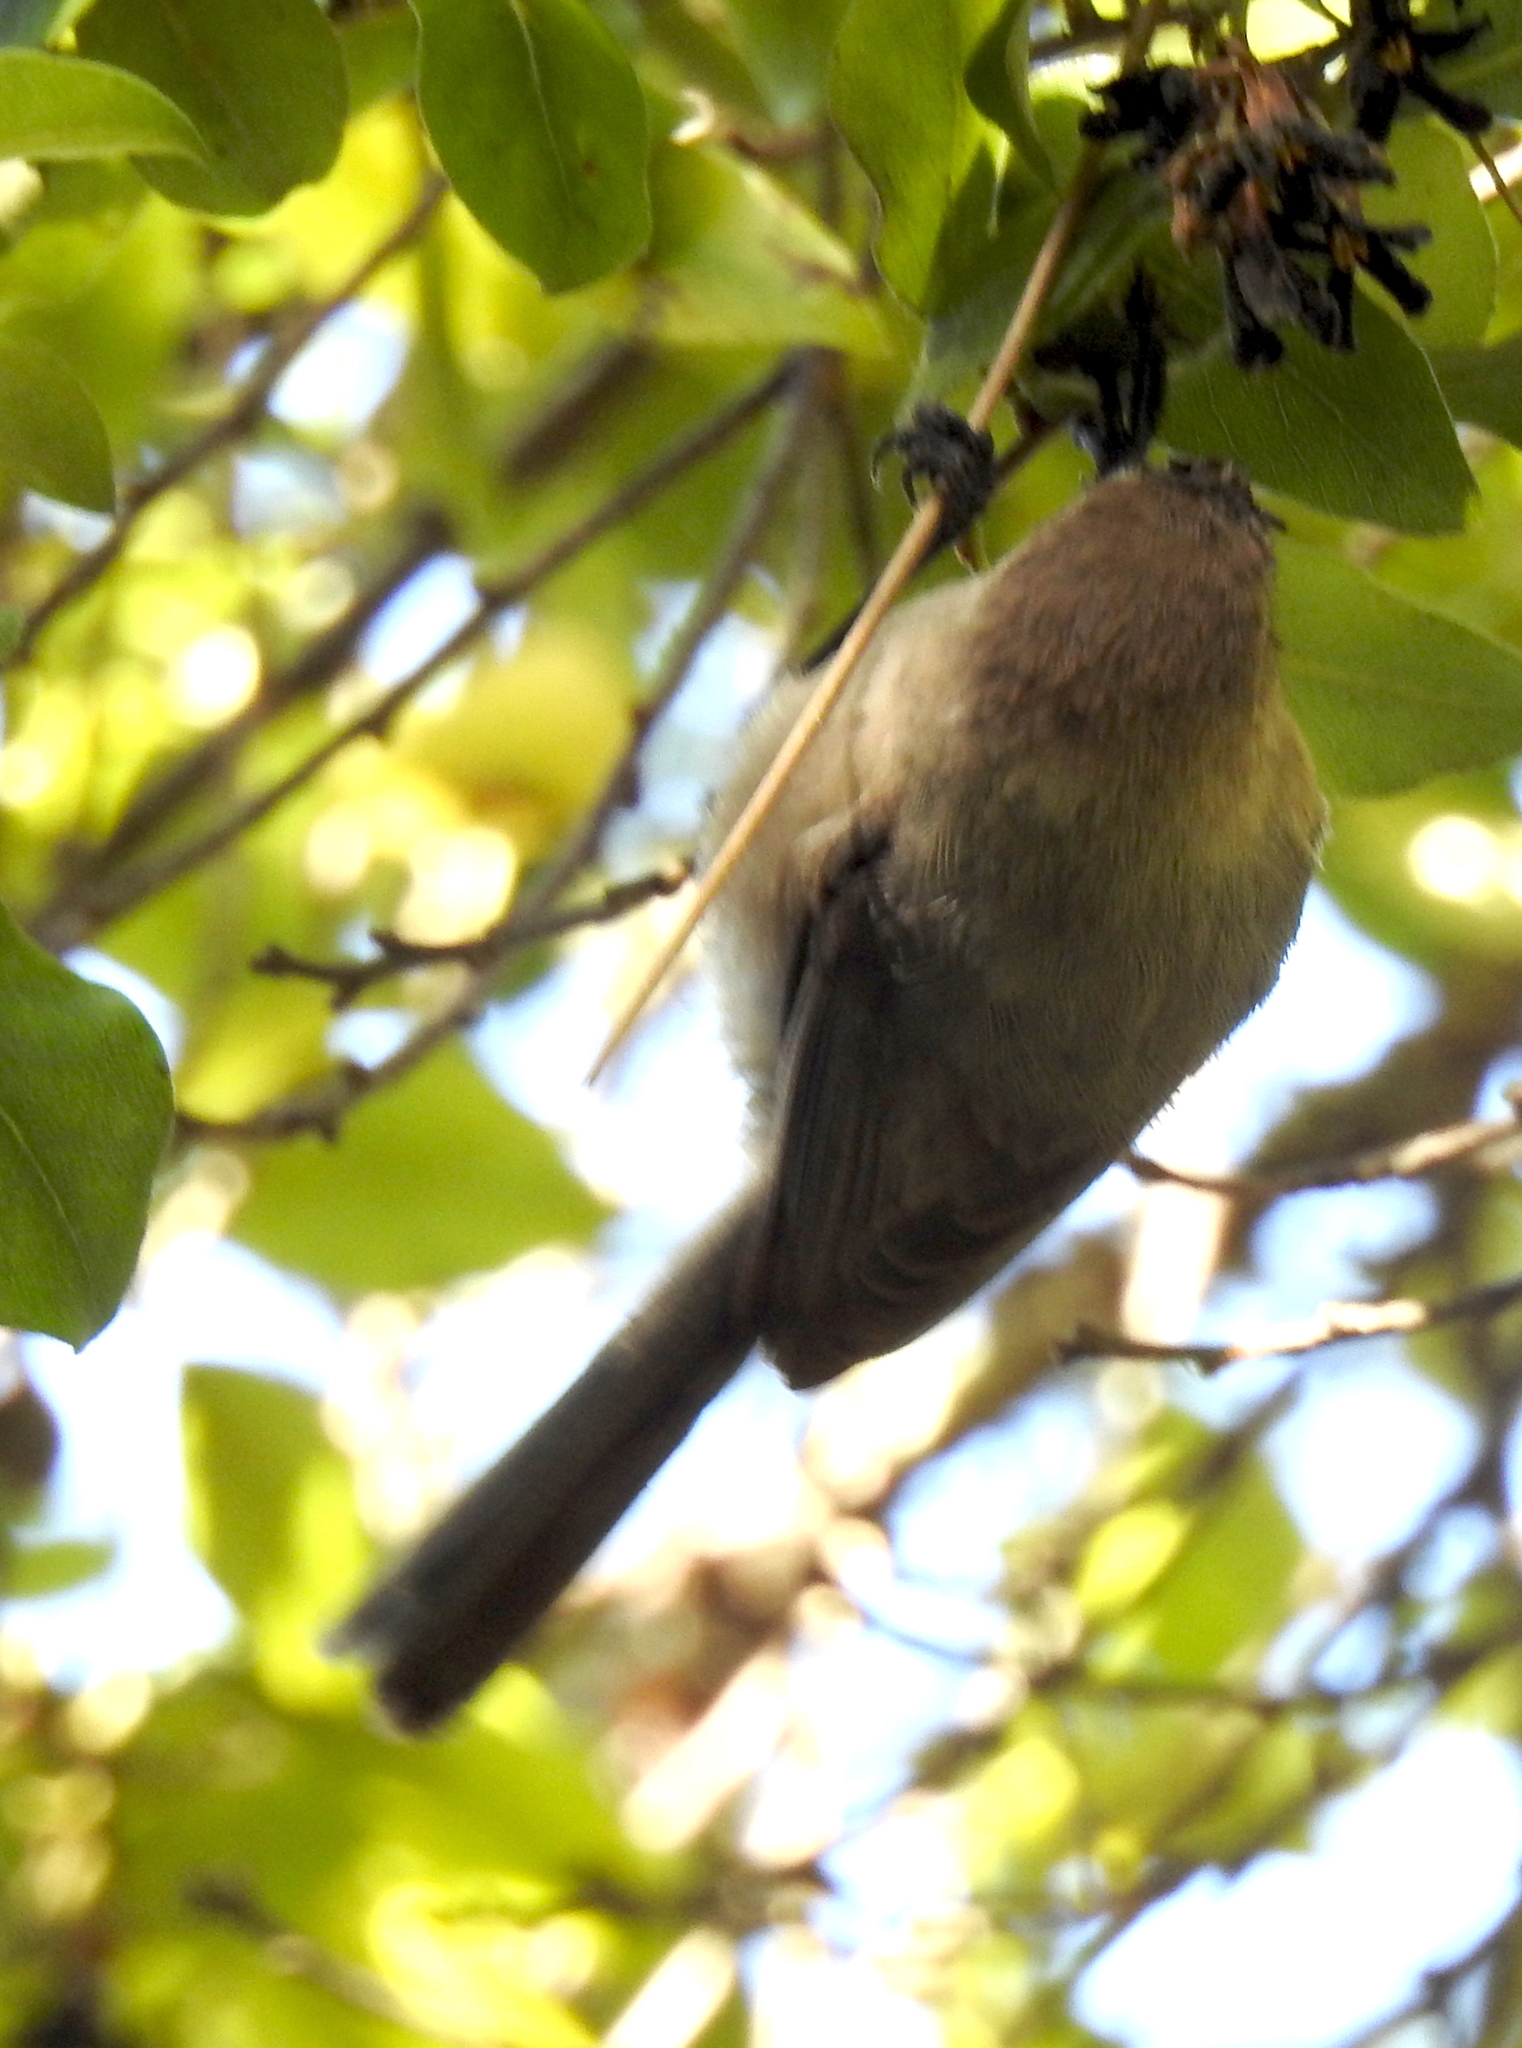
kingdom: Animalia
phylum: Chordata
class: Aves
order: Passeriformes
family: Aegithalidae
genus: Psaltriparus
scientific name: Psaltriparus minimus
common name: American bushtit
